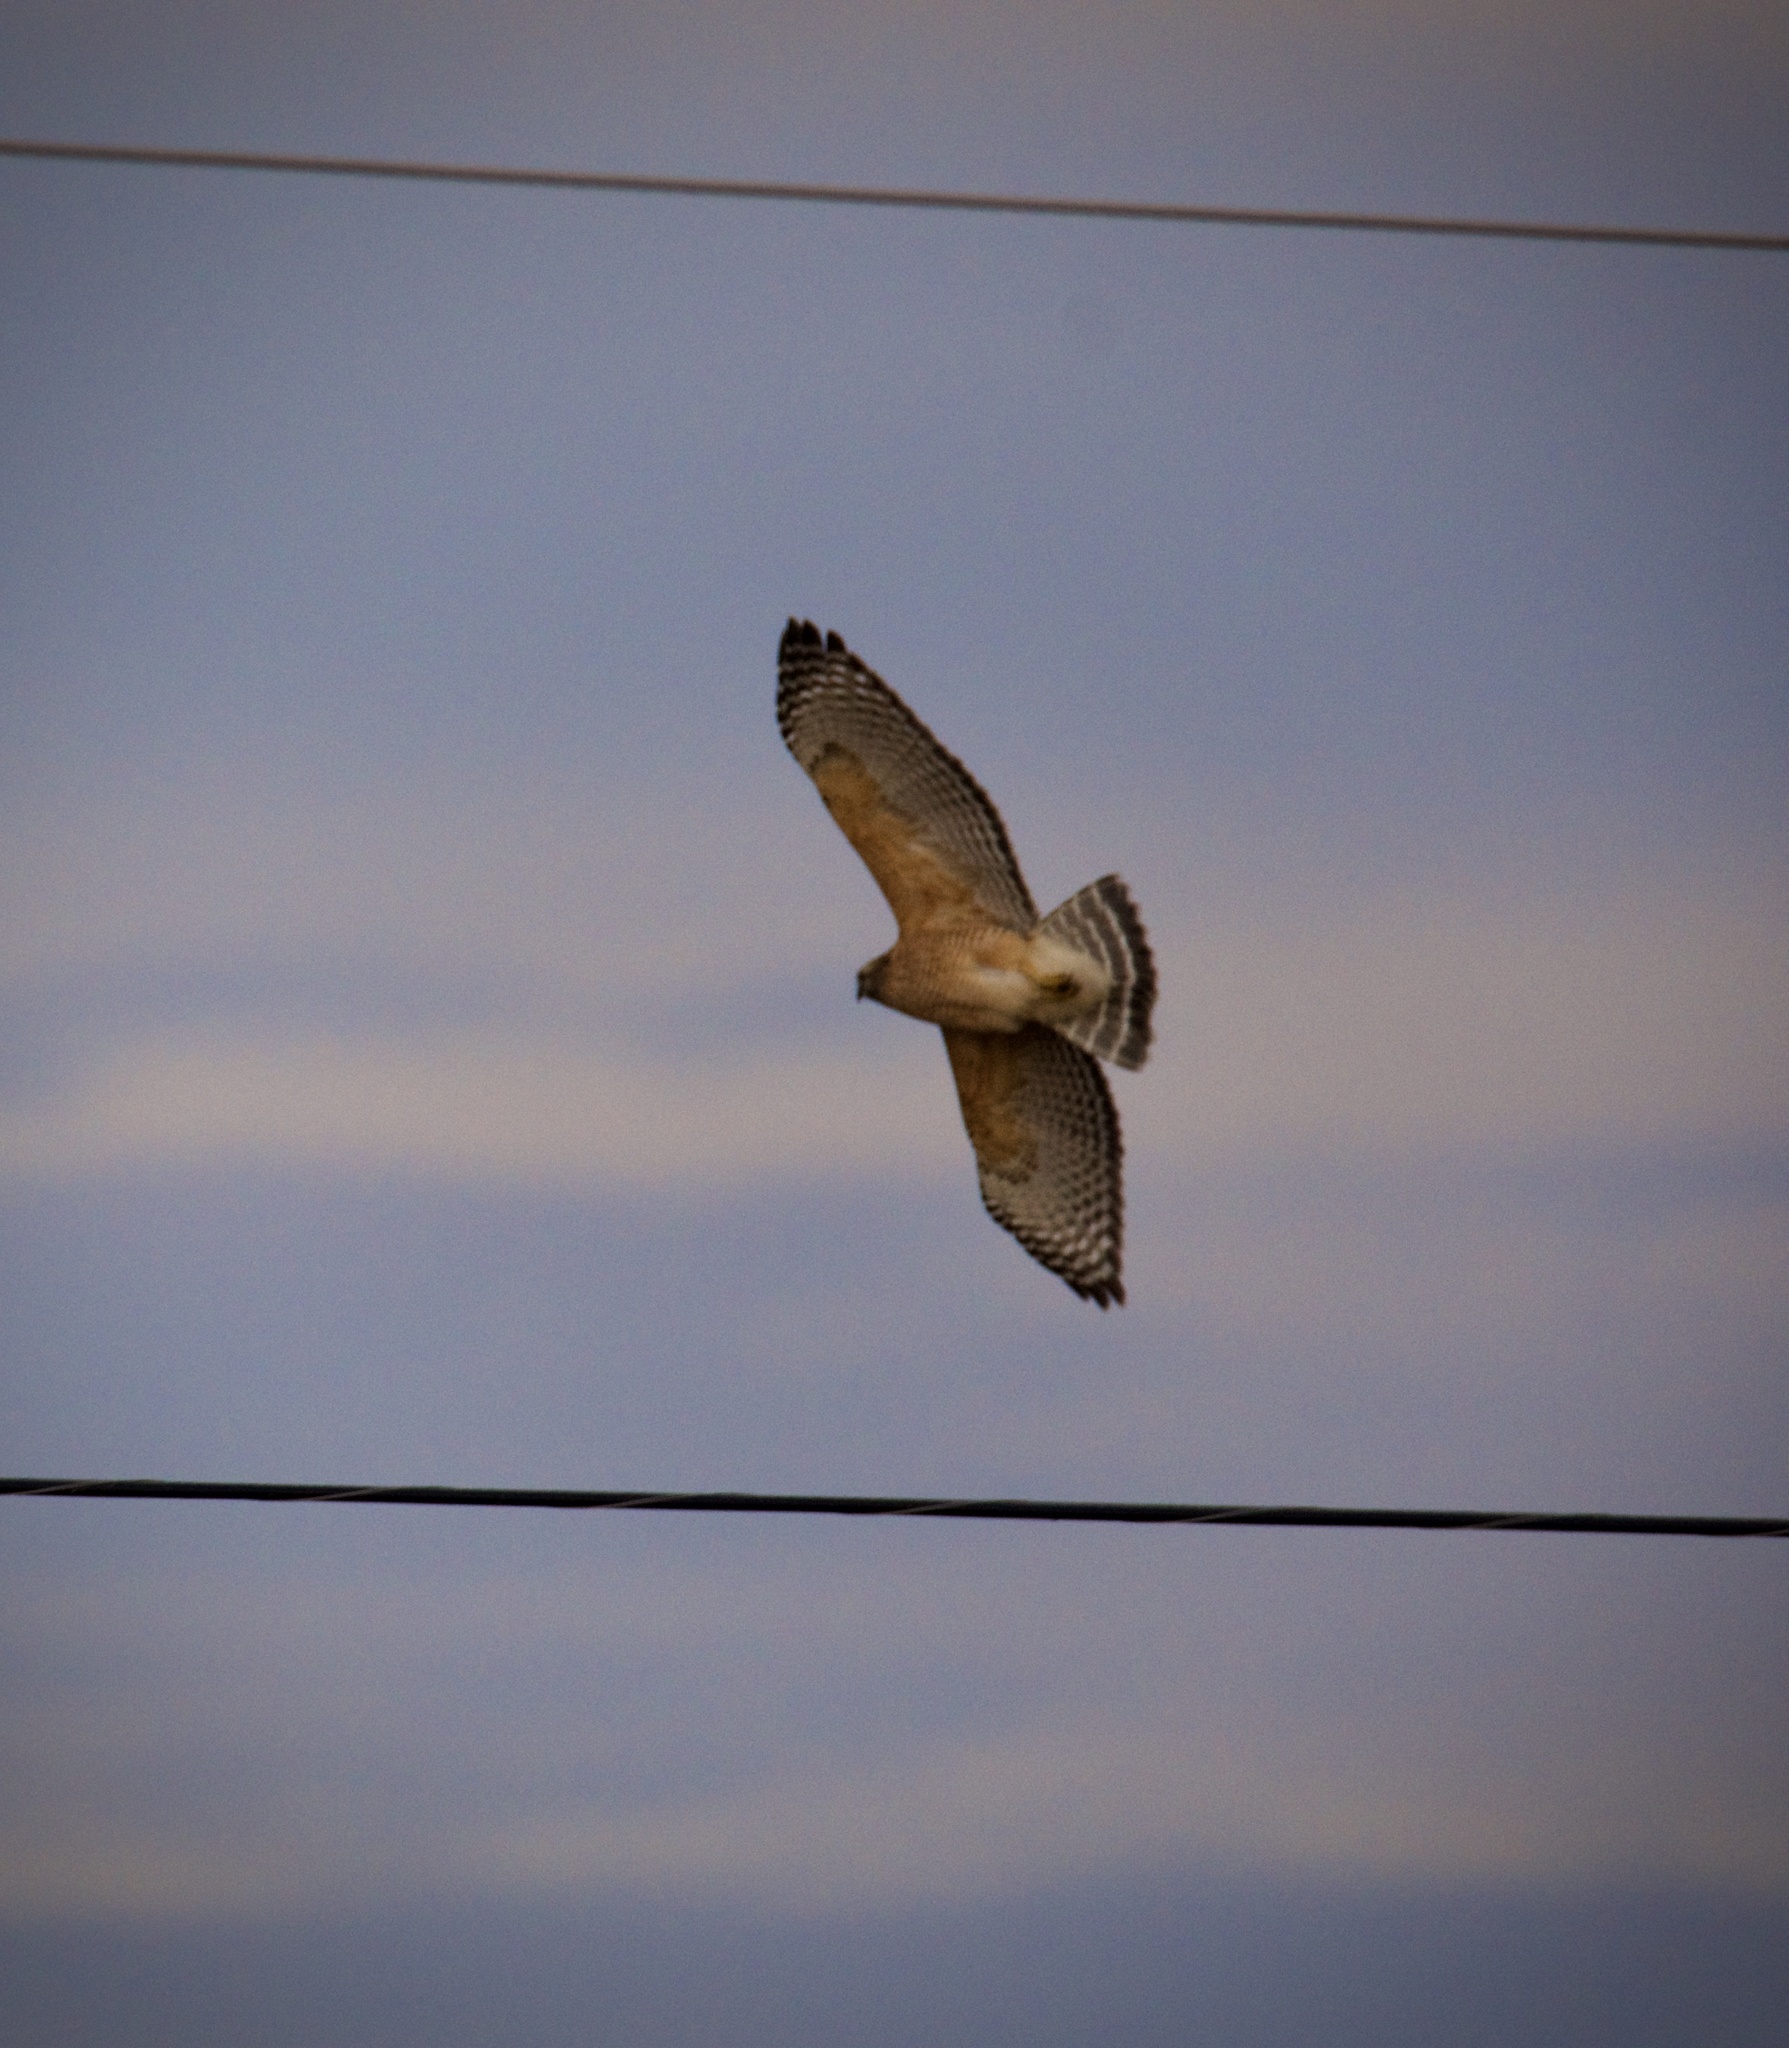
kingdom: Animalia
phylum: Chordata
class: Aves
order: Accipitriformes
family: Accipitridae
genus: Buteo
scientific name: Buteo lineatus
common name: Red-shouldered hawk
